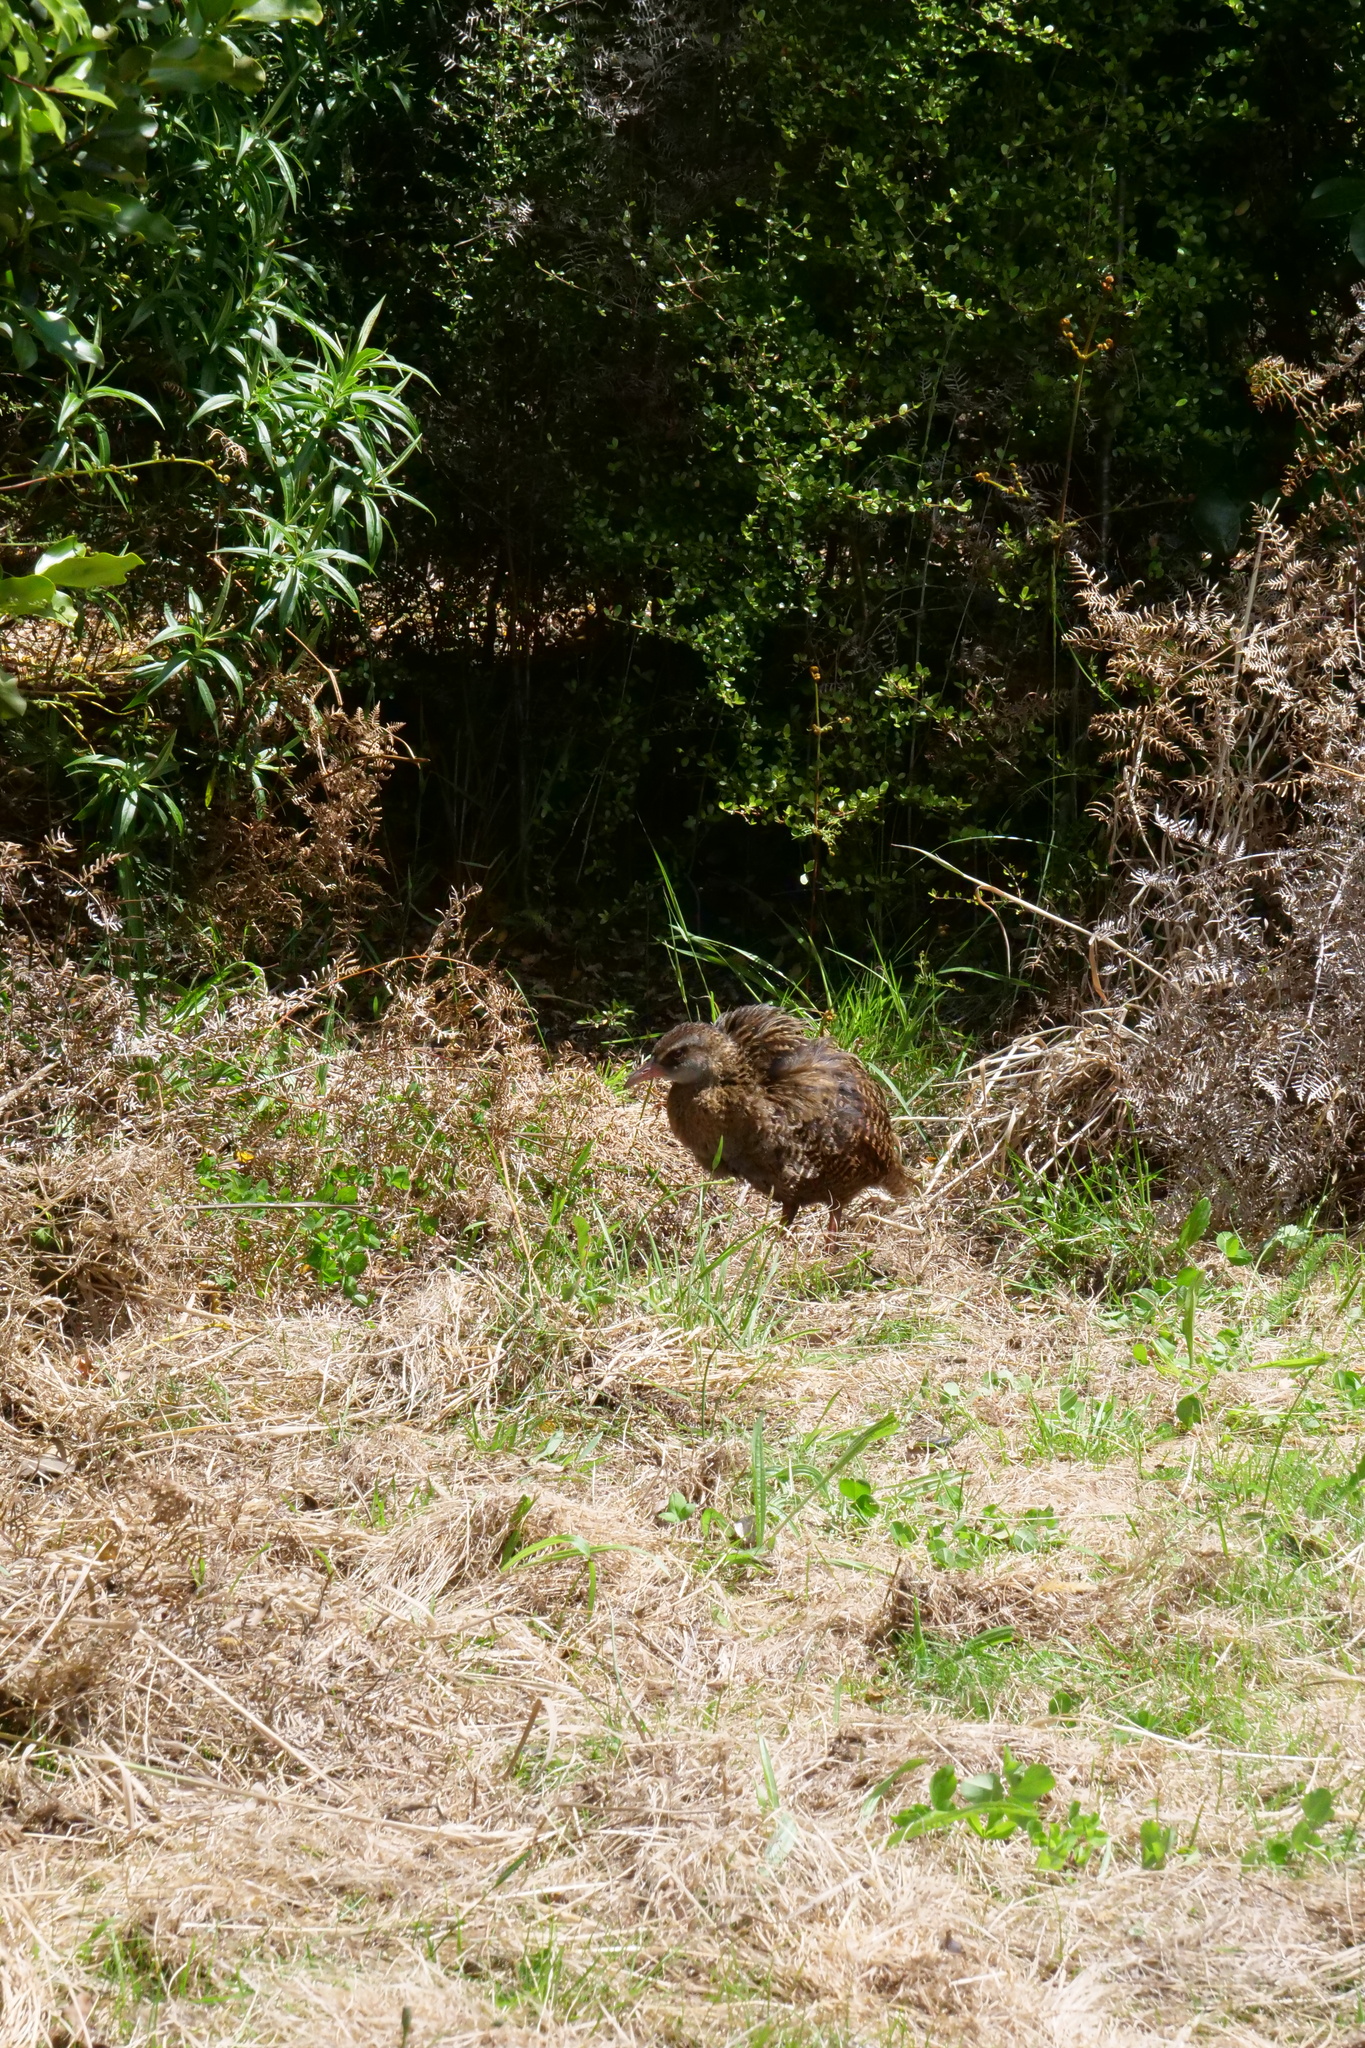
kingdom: Animalia
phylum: Chordata
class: Aves
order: Gruiformes
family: Rallidae
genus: Gallirallus
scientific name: Gallirallus australis
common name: Weka
